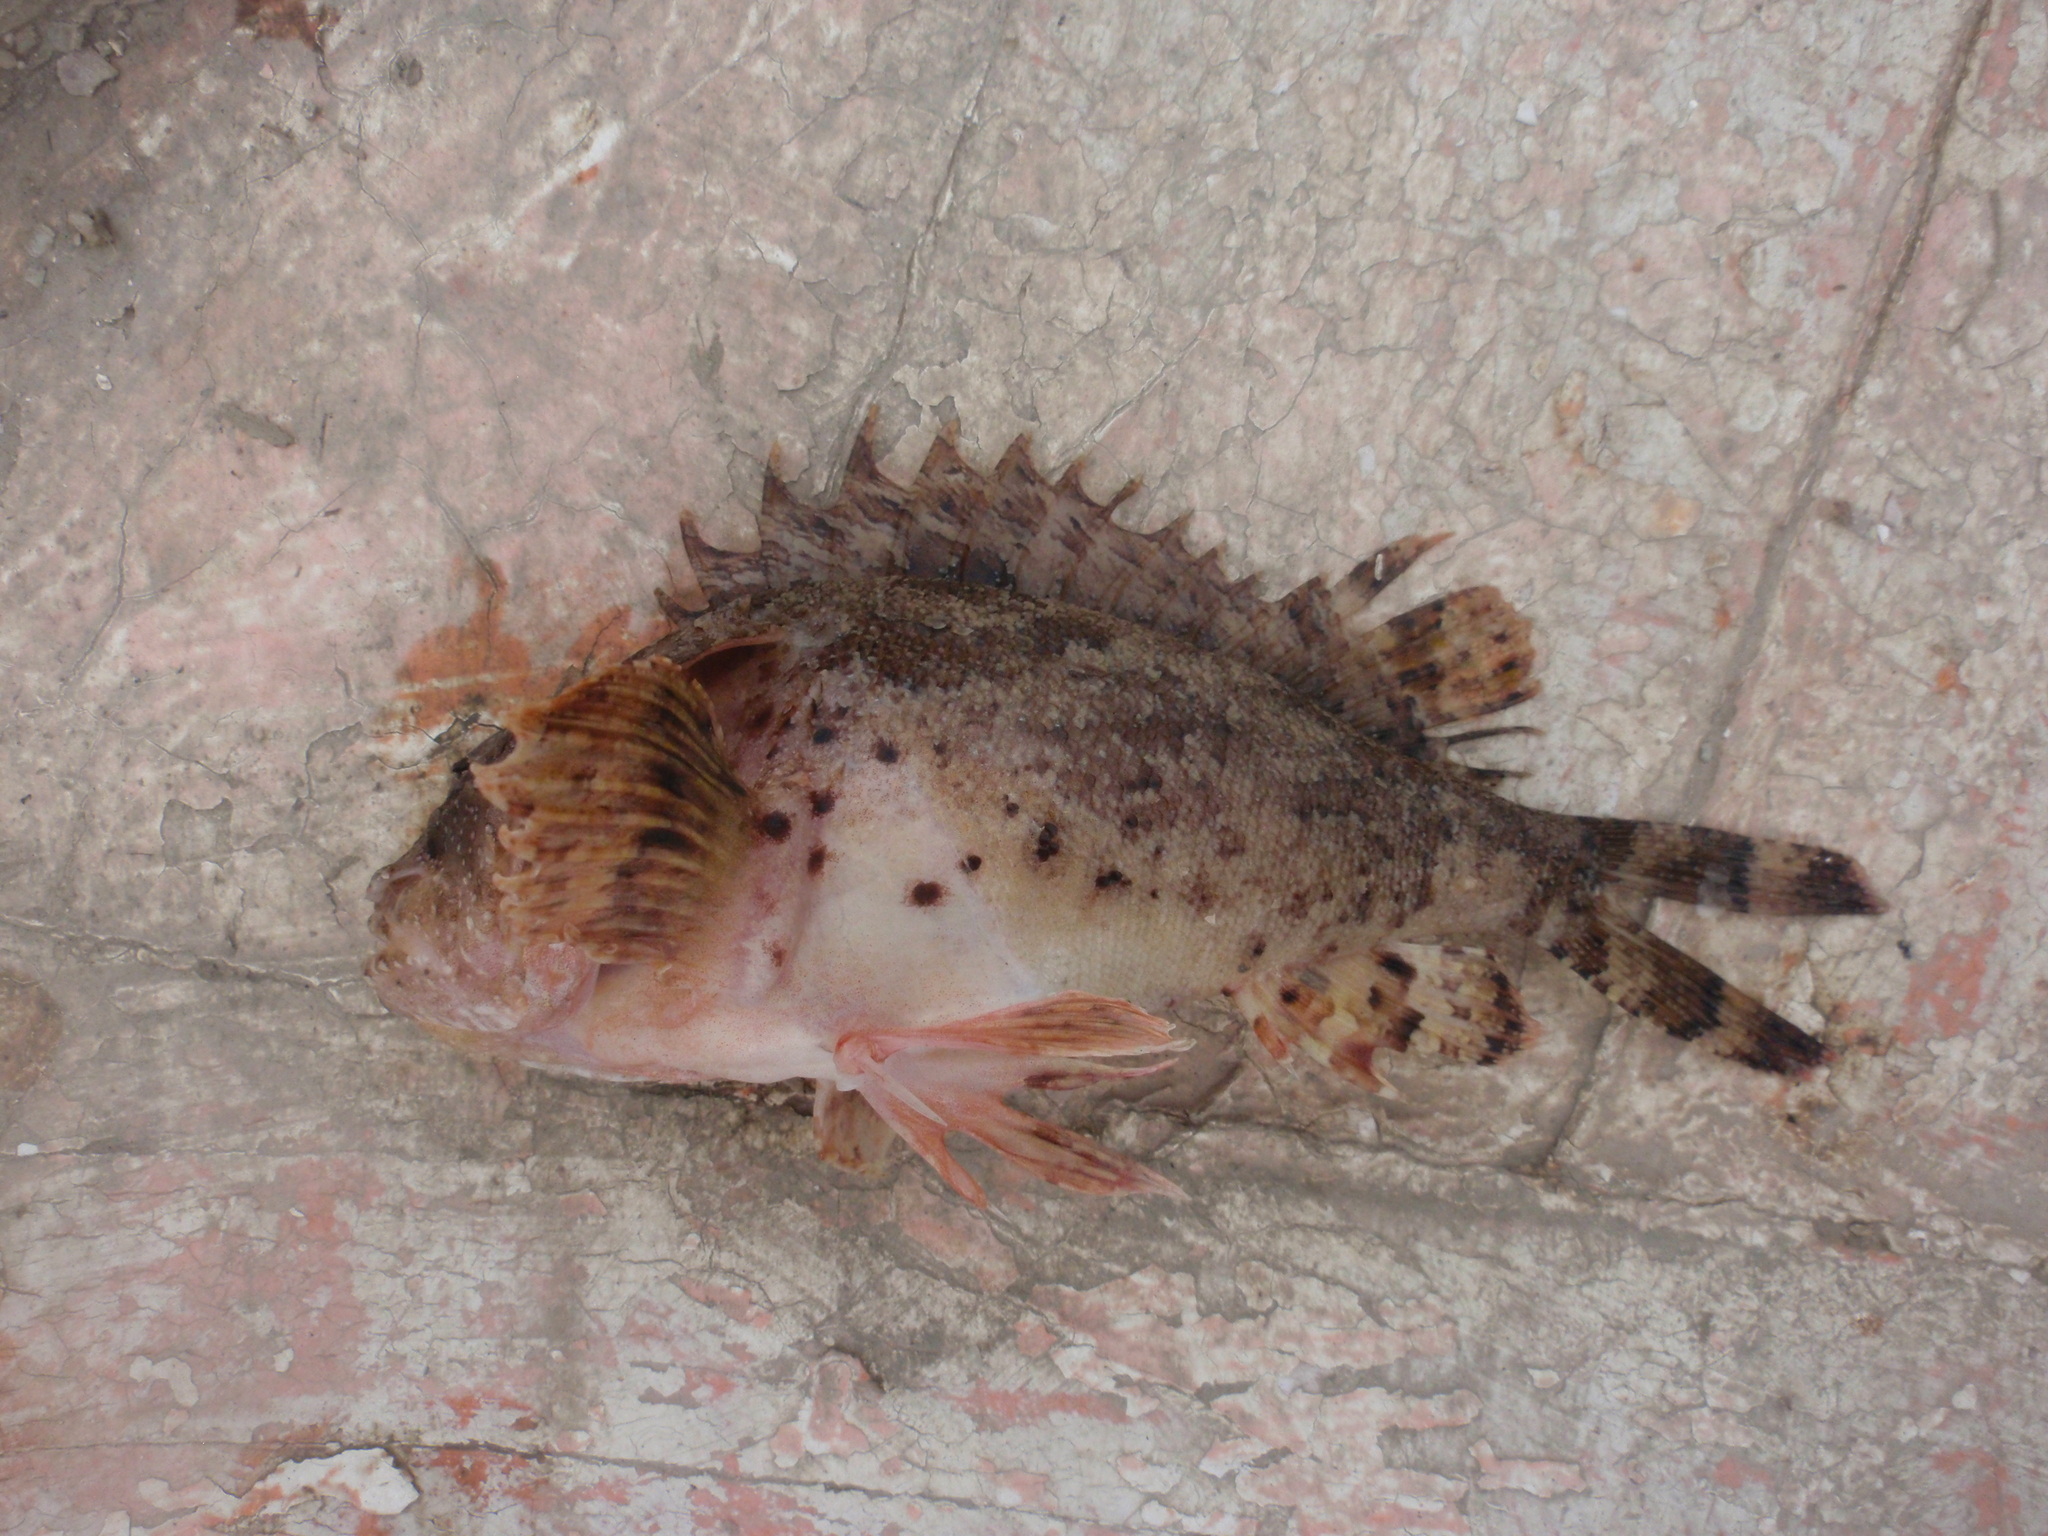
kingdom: Animalia
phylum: Chordata
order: Scorpaeniformes
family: Scorpaenidae
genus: Scorpaena
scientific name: Scorpaena porcus
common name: Black scorpionfish
